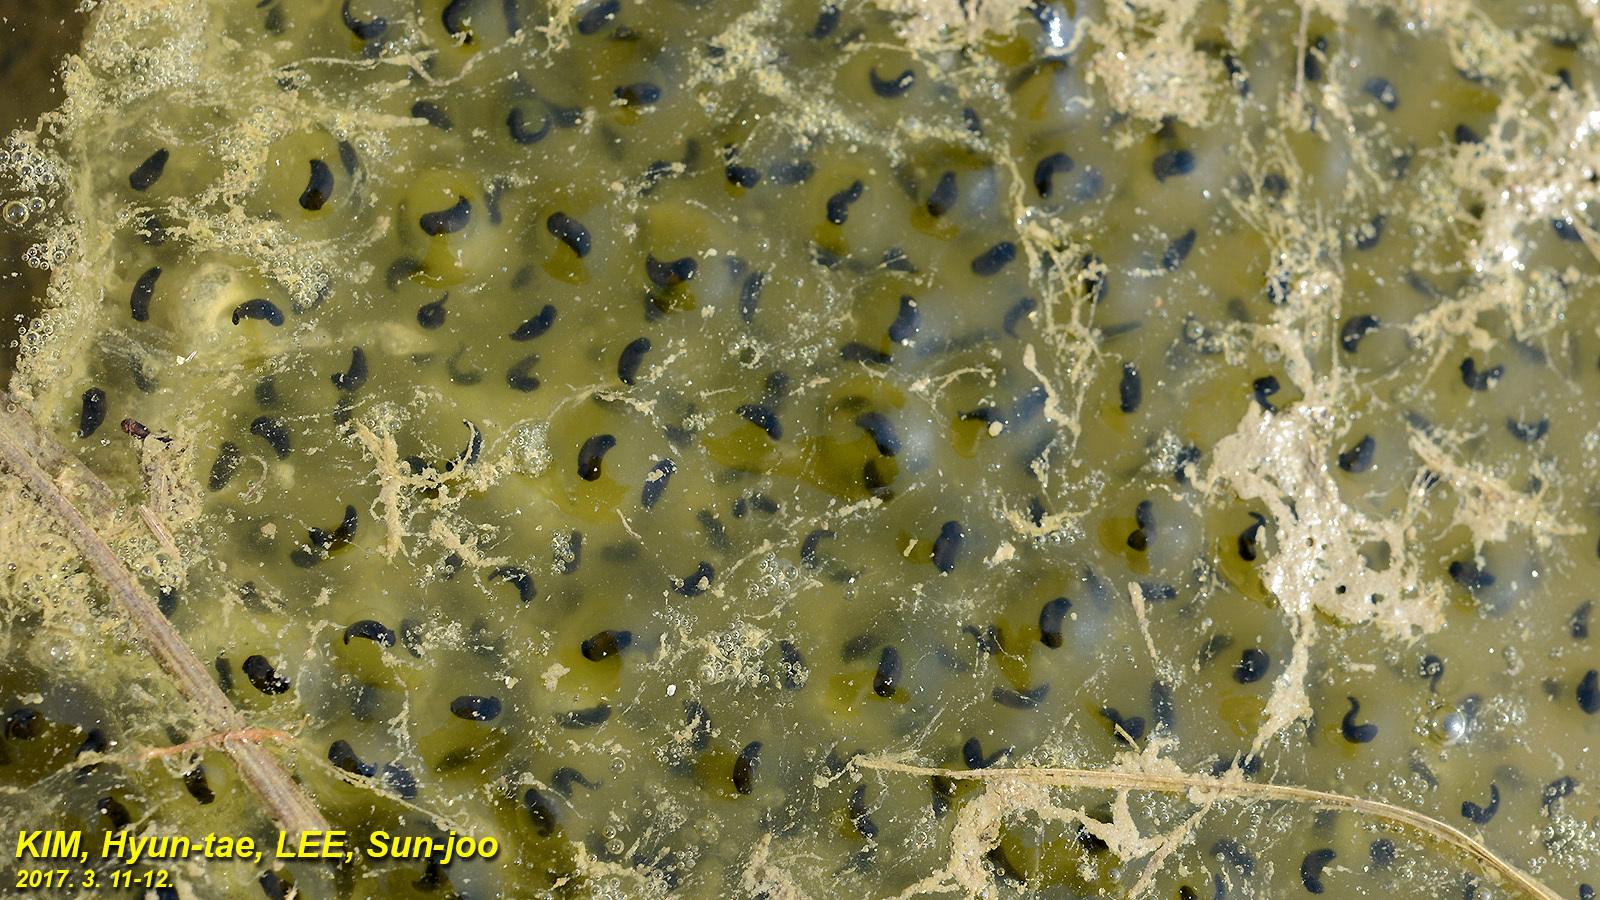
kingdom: Animalia
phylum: Chordata
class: Amphibia
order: Anura
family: Ranidae
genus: Rana
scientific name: Rana uenoi
